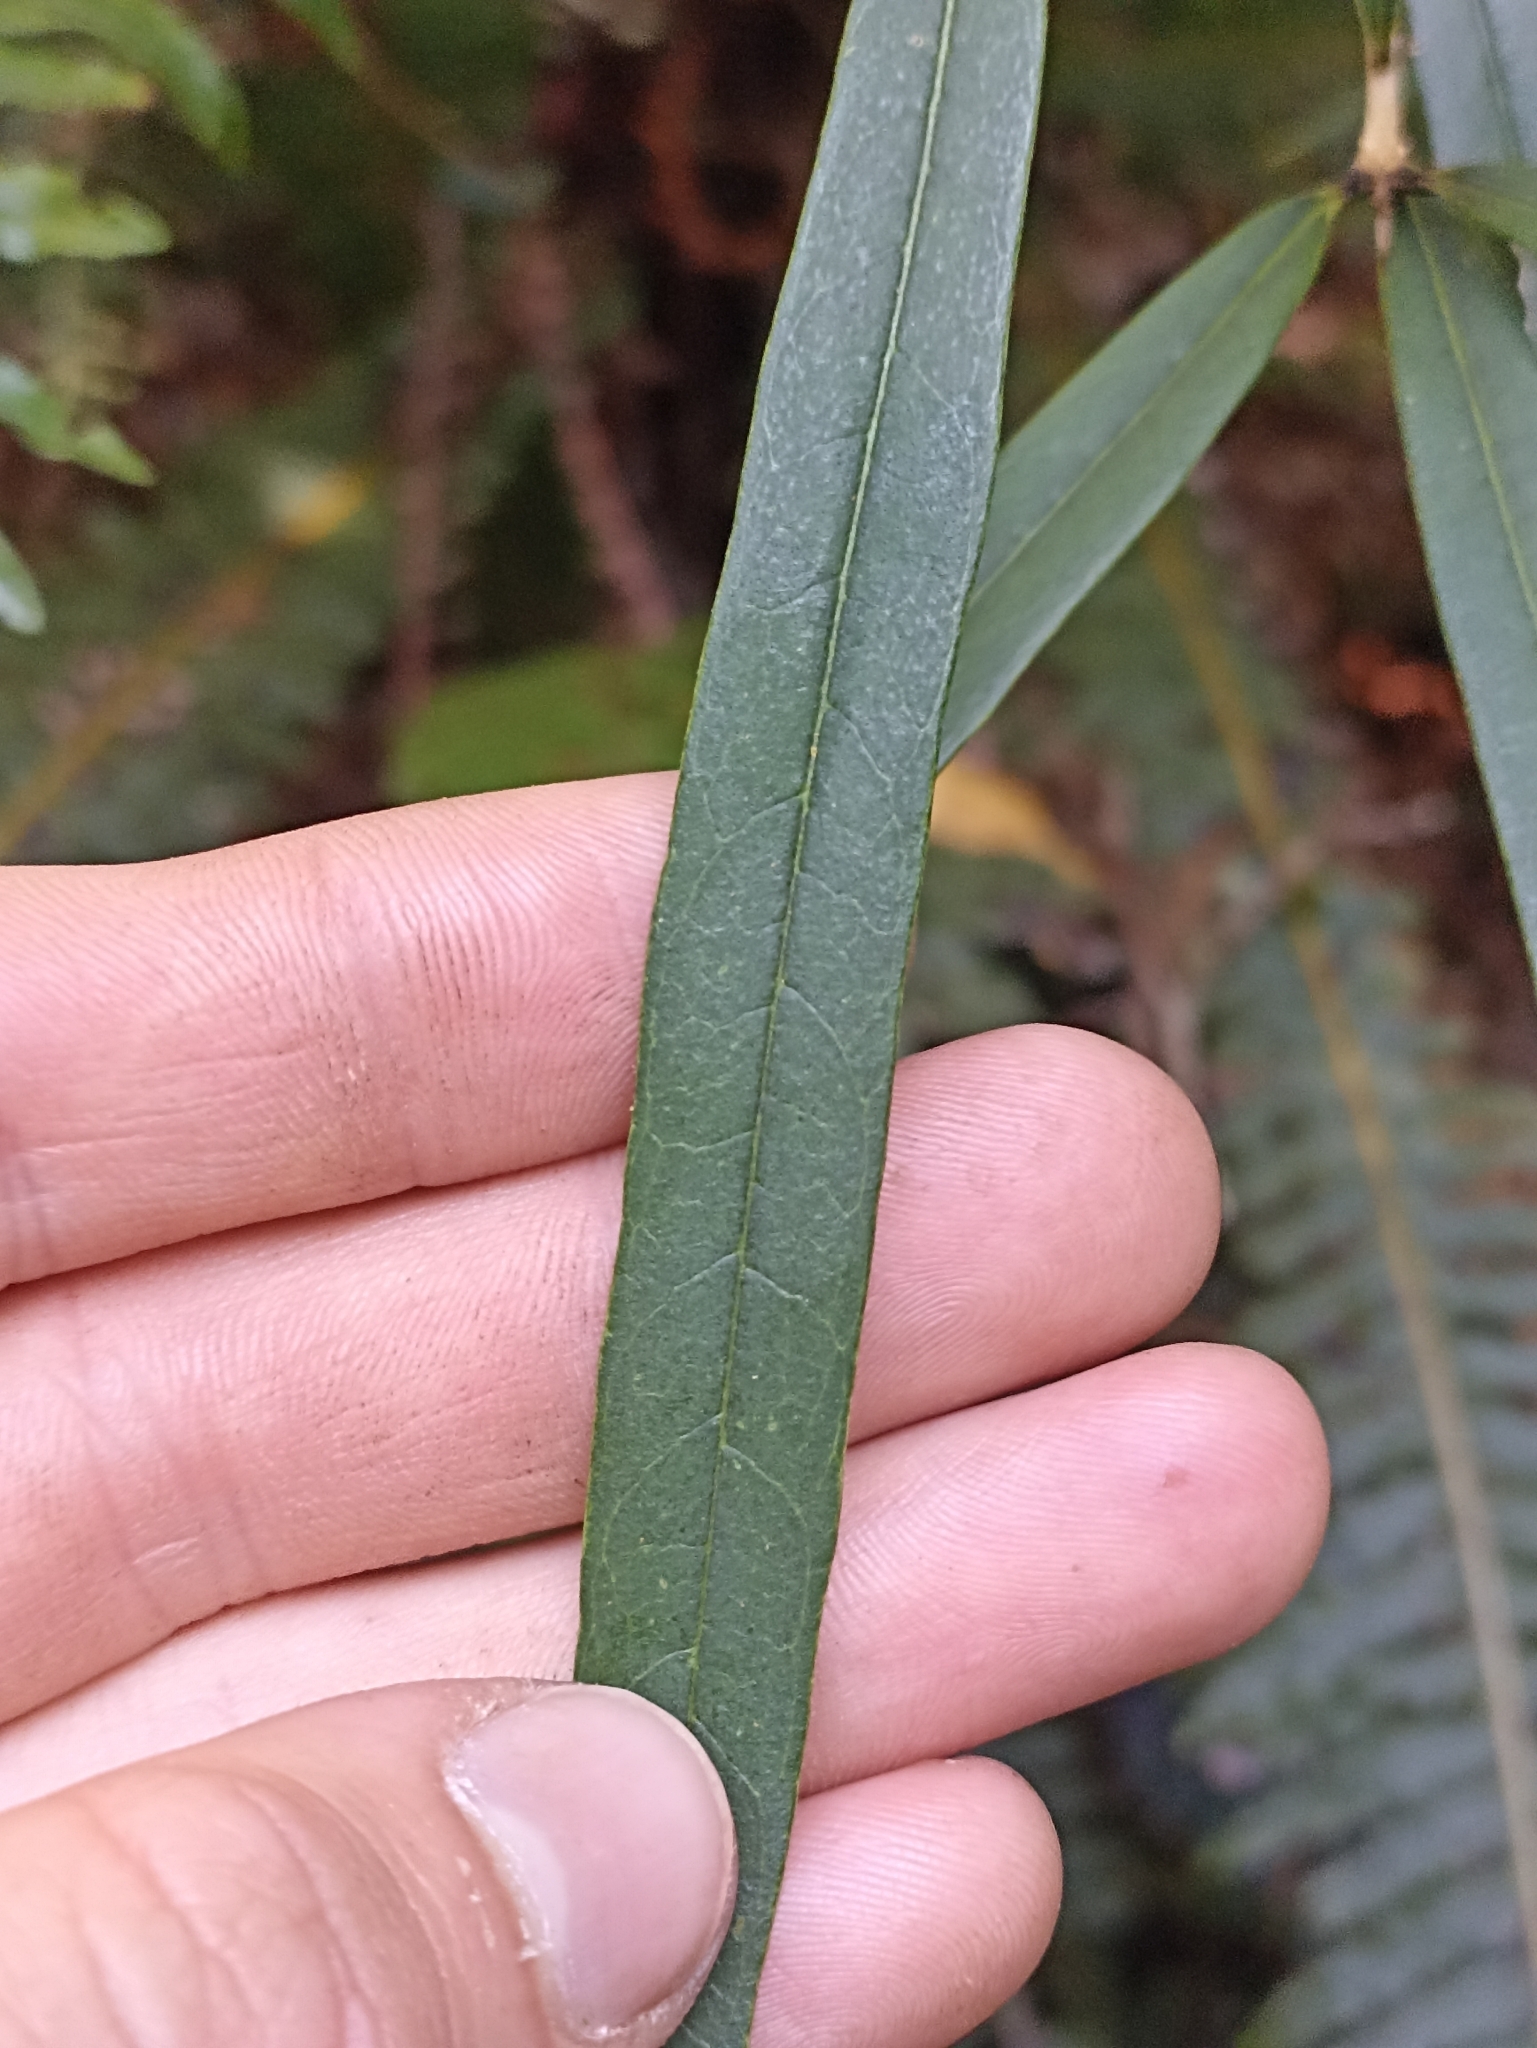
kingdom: Plantae
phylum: Tracheophyta
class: Magnoliopsida
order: Lamiales
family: Oleaceae
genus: Nestegis
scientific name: Nestegis cunninghamii
